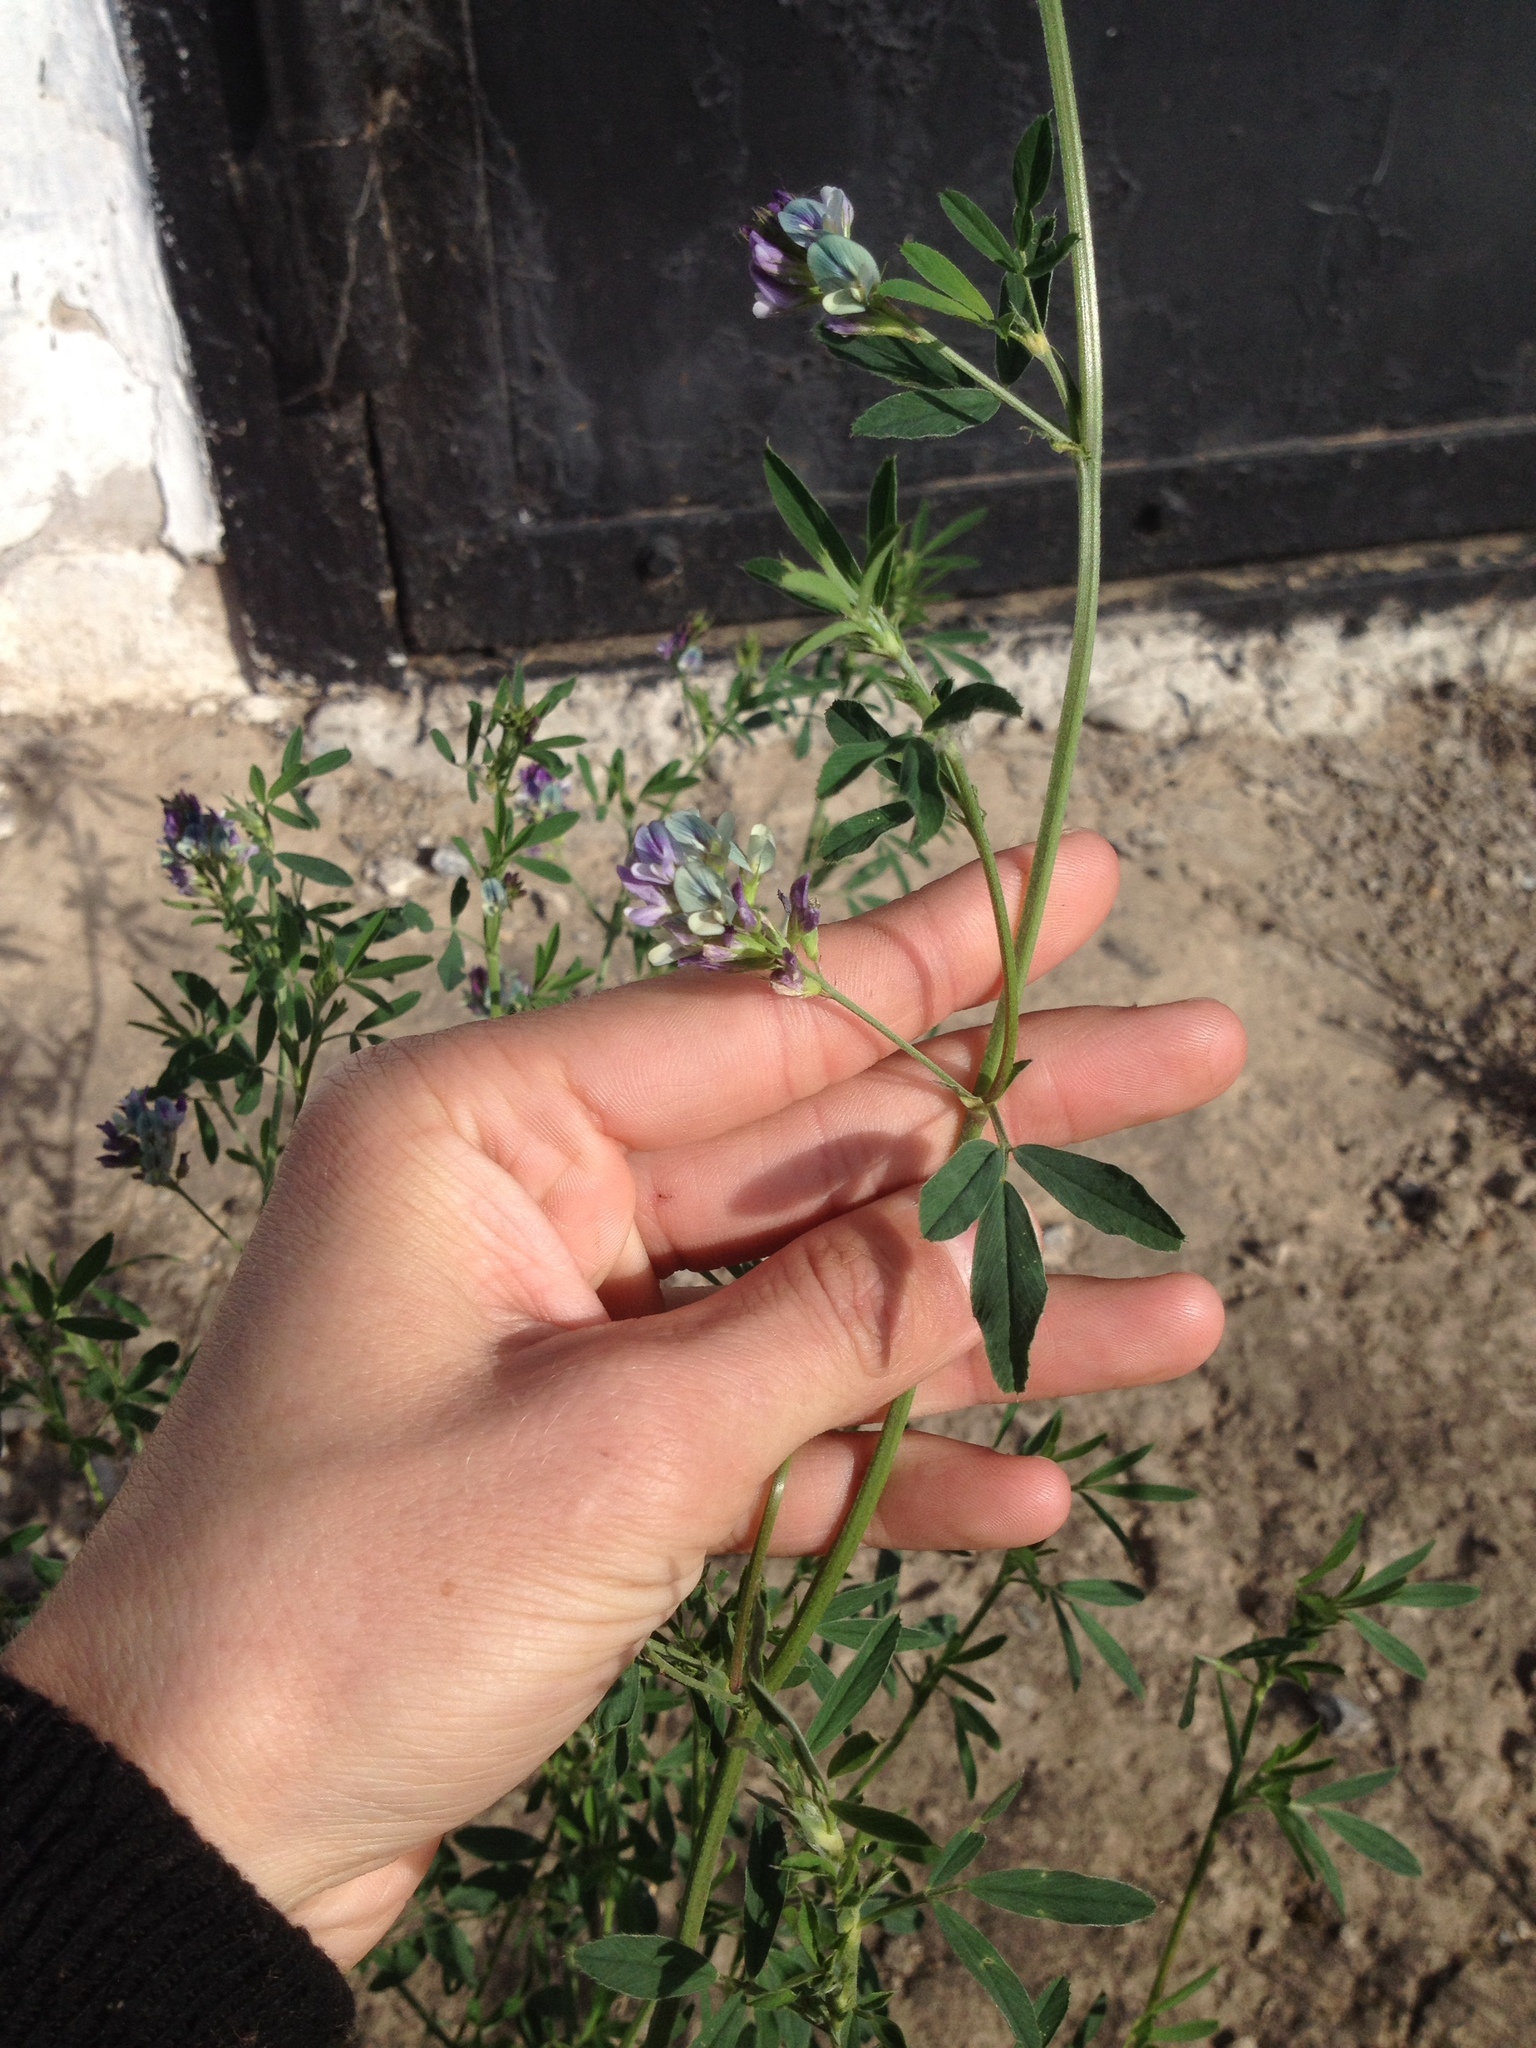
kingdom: Plantae
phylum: Tracheophyta
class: Magnoliopsida
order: Fabales
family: Fabaceae
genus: Medicago
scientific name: Medicago varia
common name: Sand lucerne
